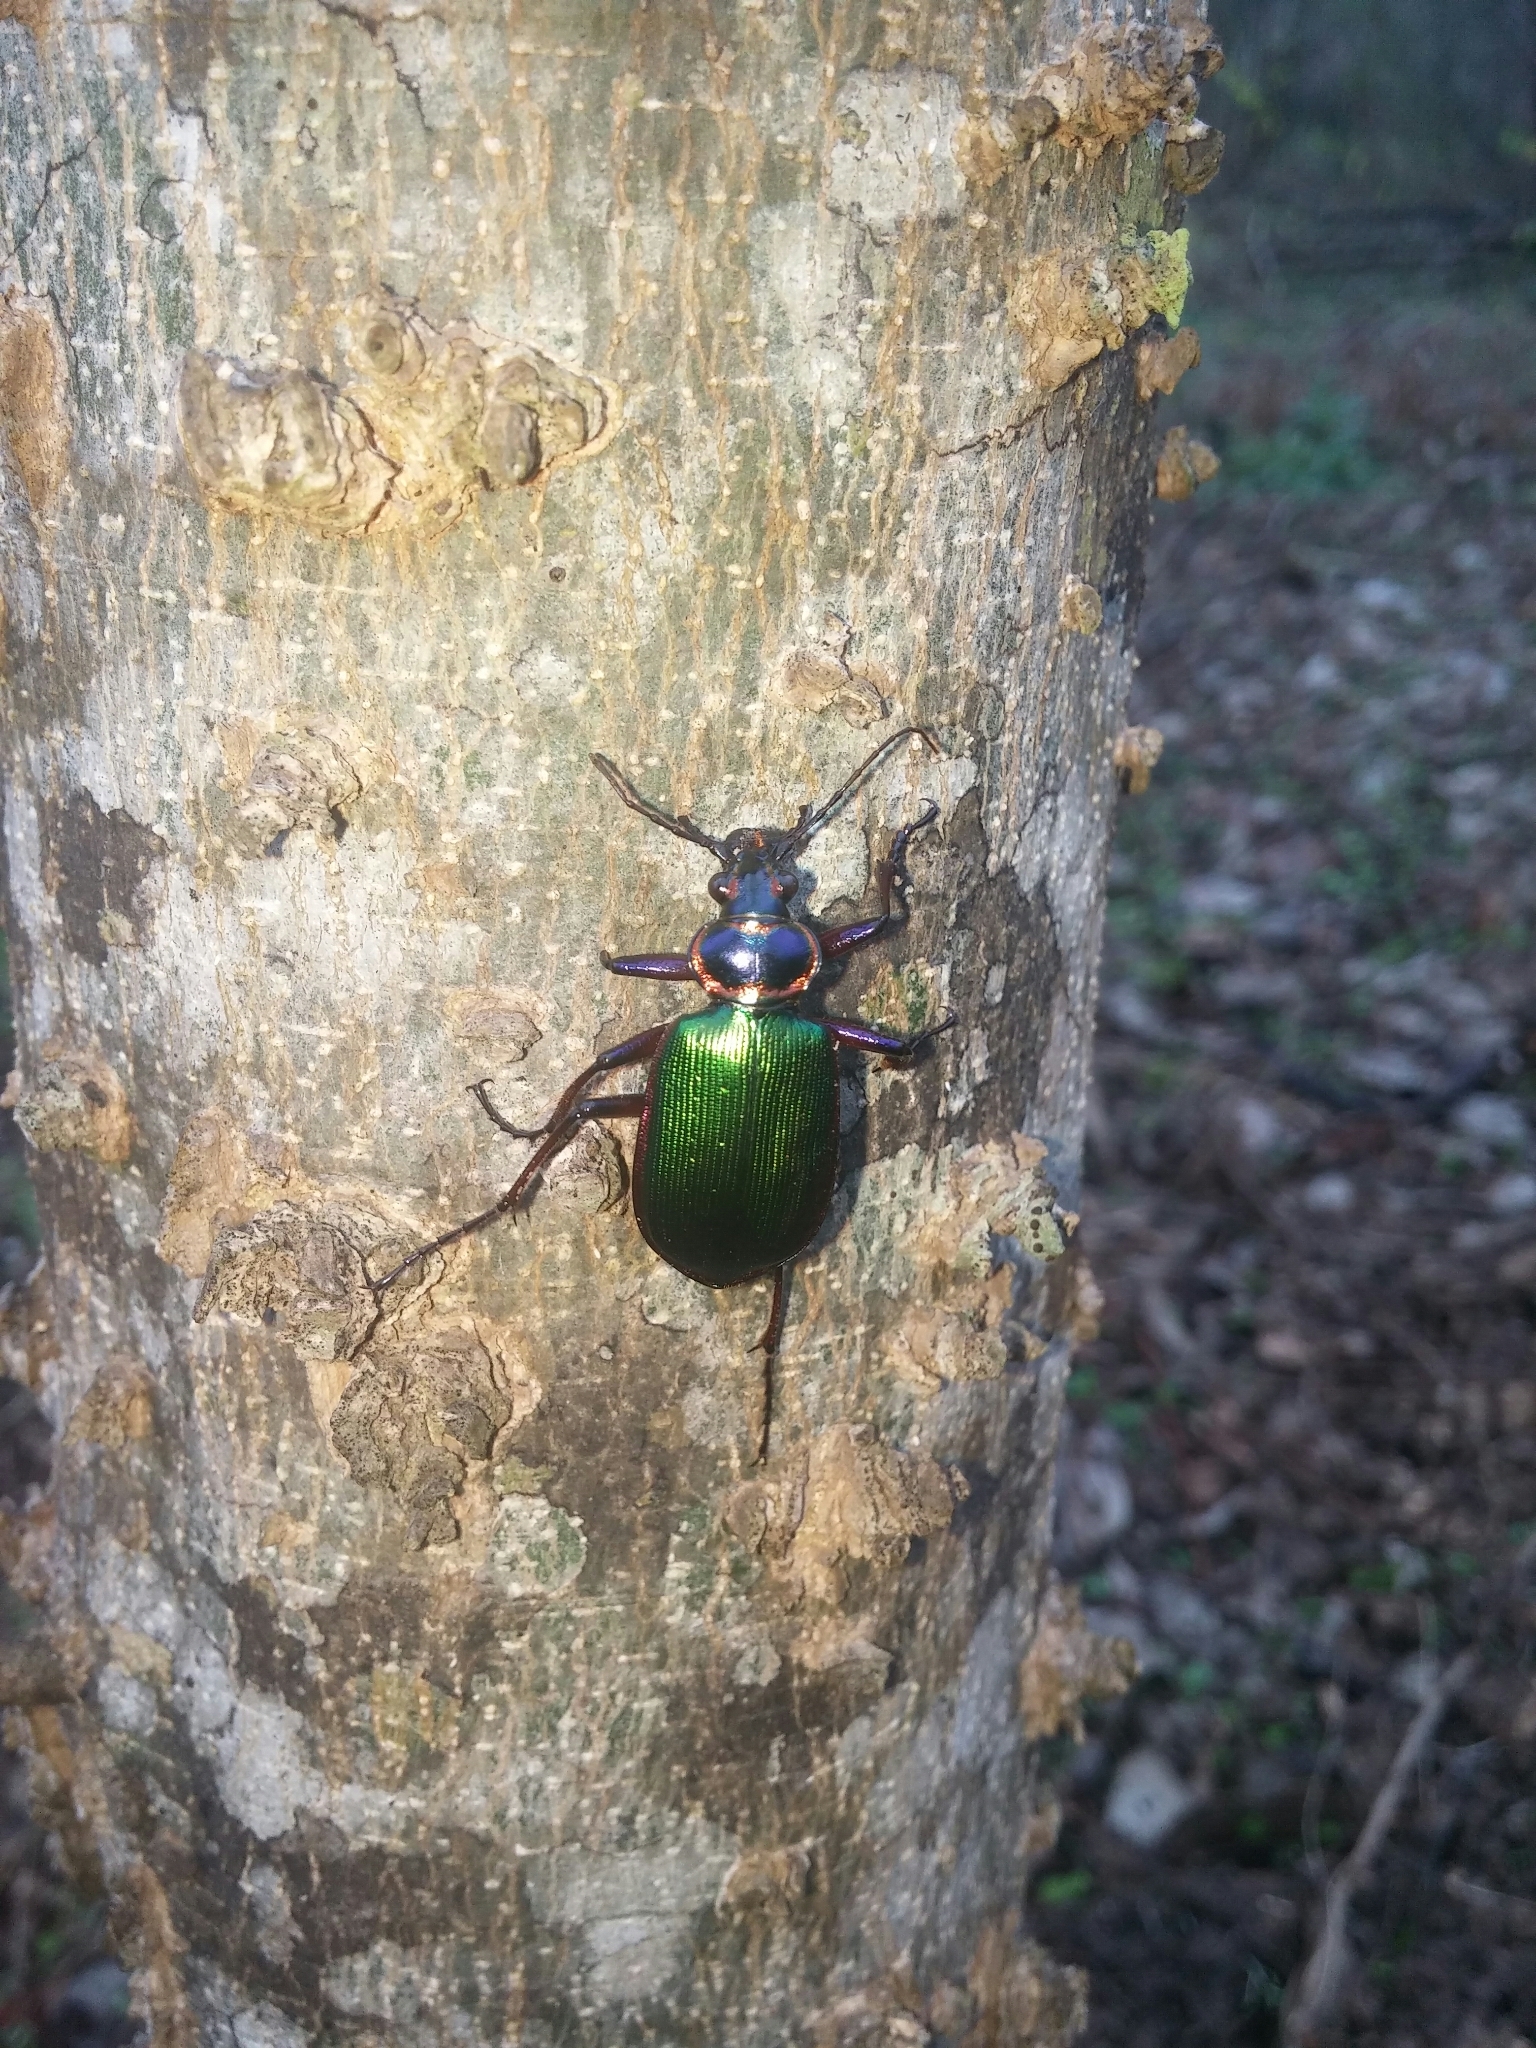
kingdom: Animalia
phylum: Arthropoda
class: Insecta
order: Coleoptera
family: Carabidae
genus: Calosoma
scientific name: Calosoma scrutator
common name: Fiery searcher beetle
